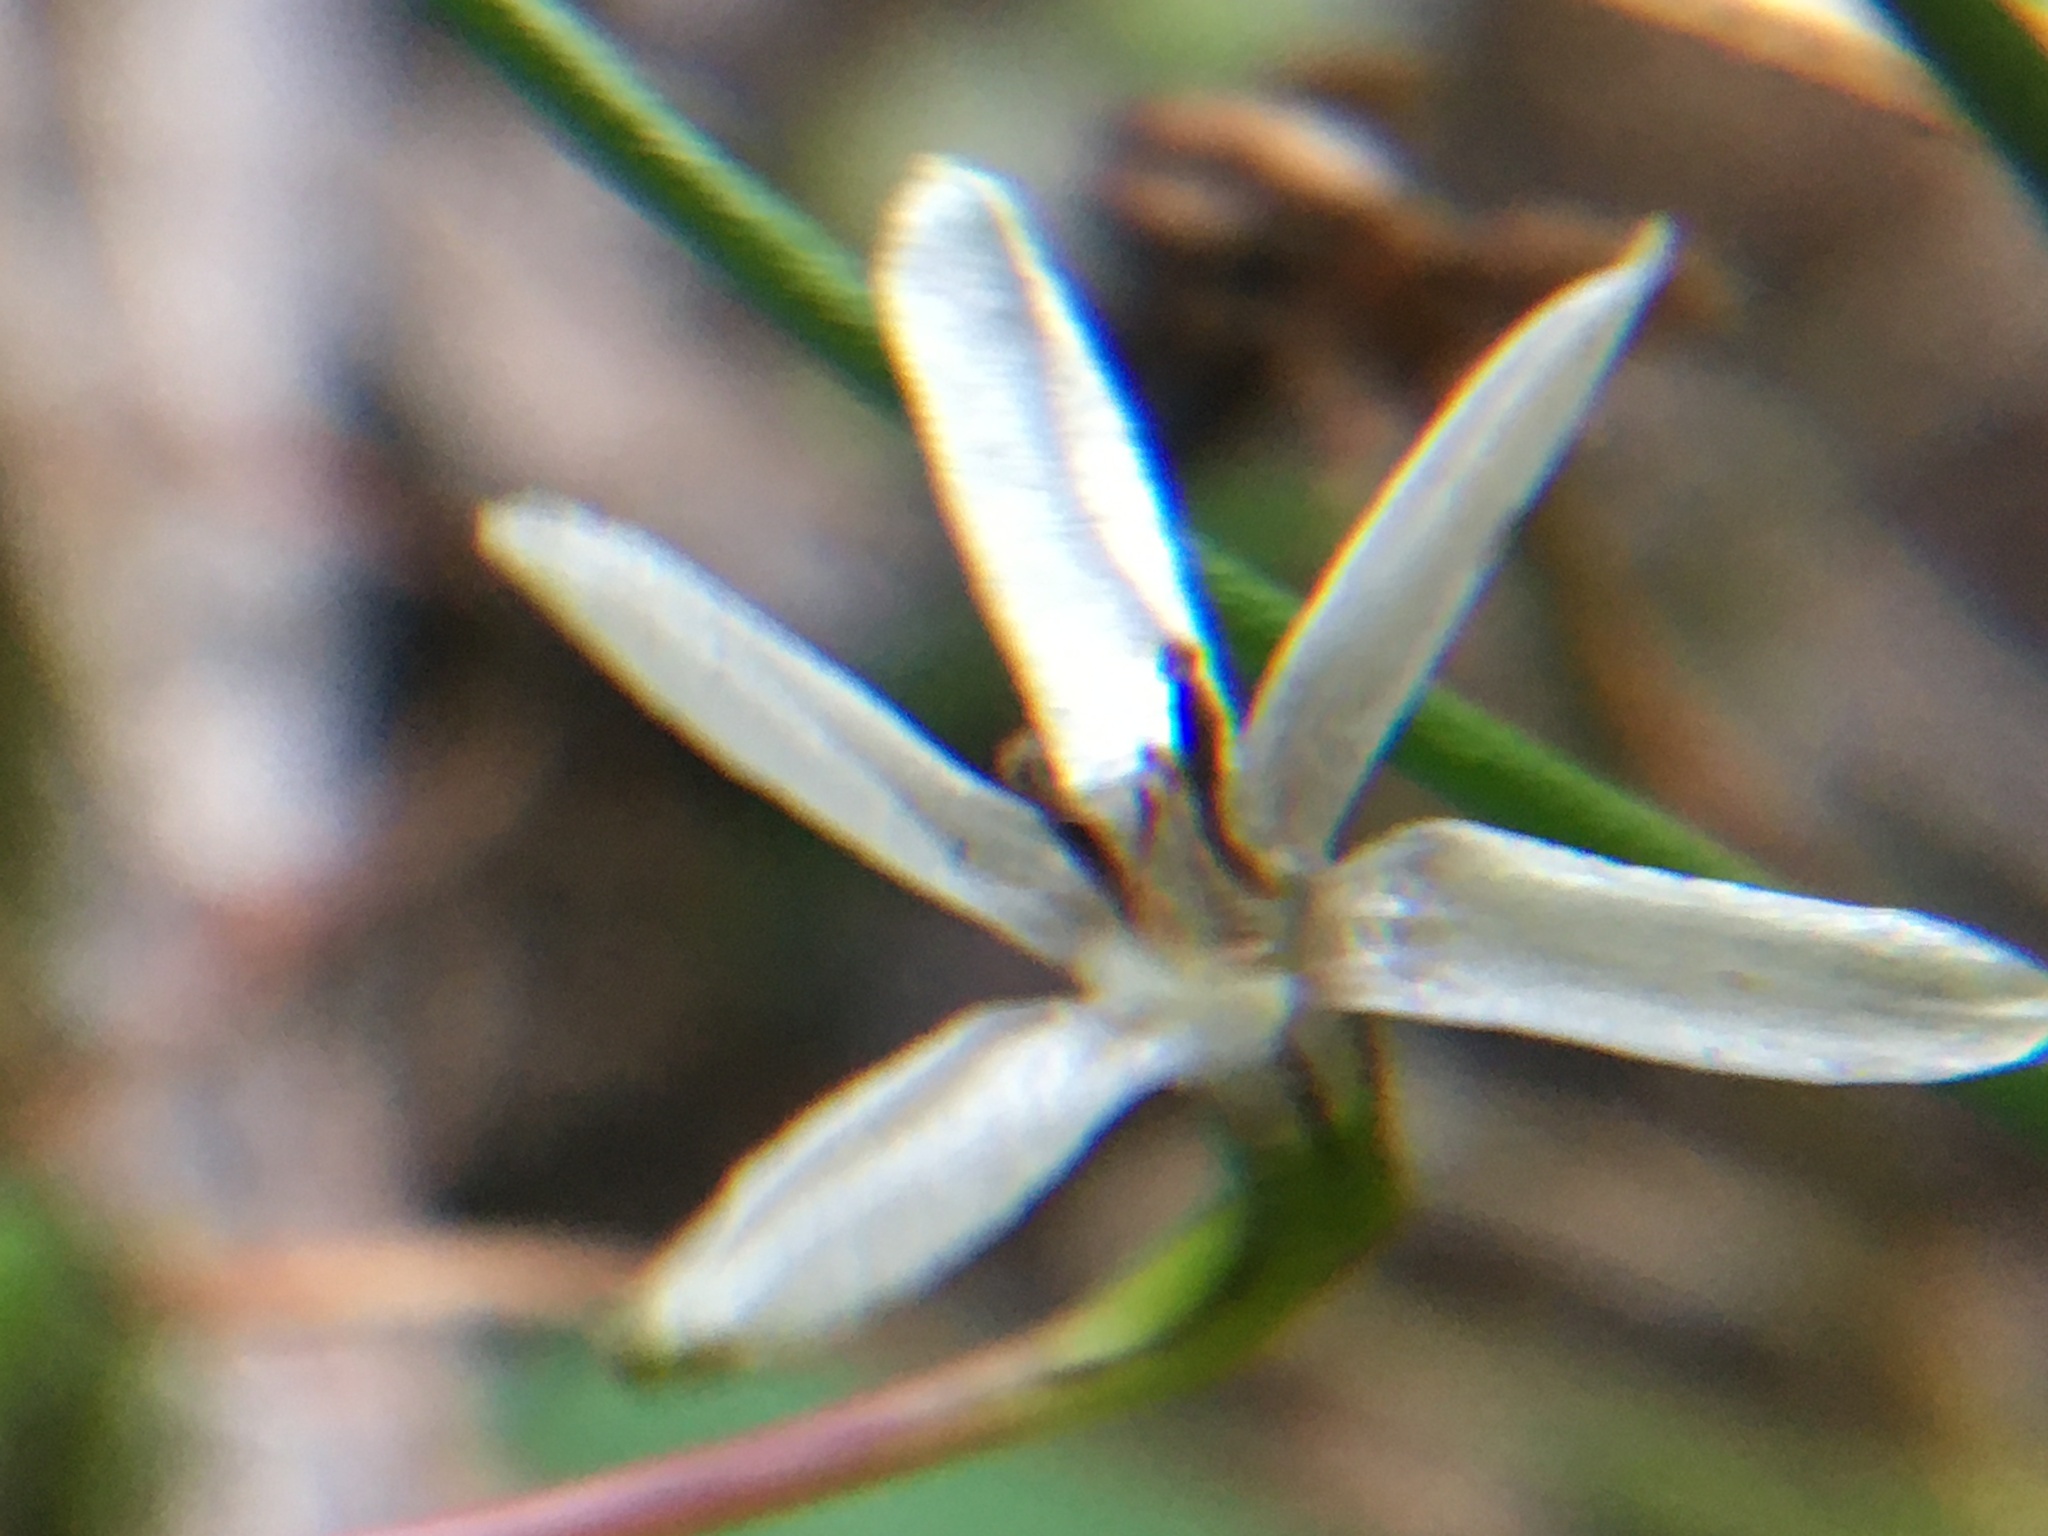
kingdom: Plantae
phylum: Tracheophyta
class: Liliopsida
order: Asparagales
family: Hypoxidaceae
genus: Pauridia
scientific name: Pauridia minuta
